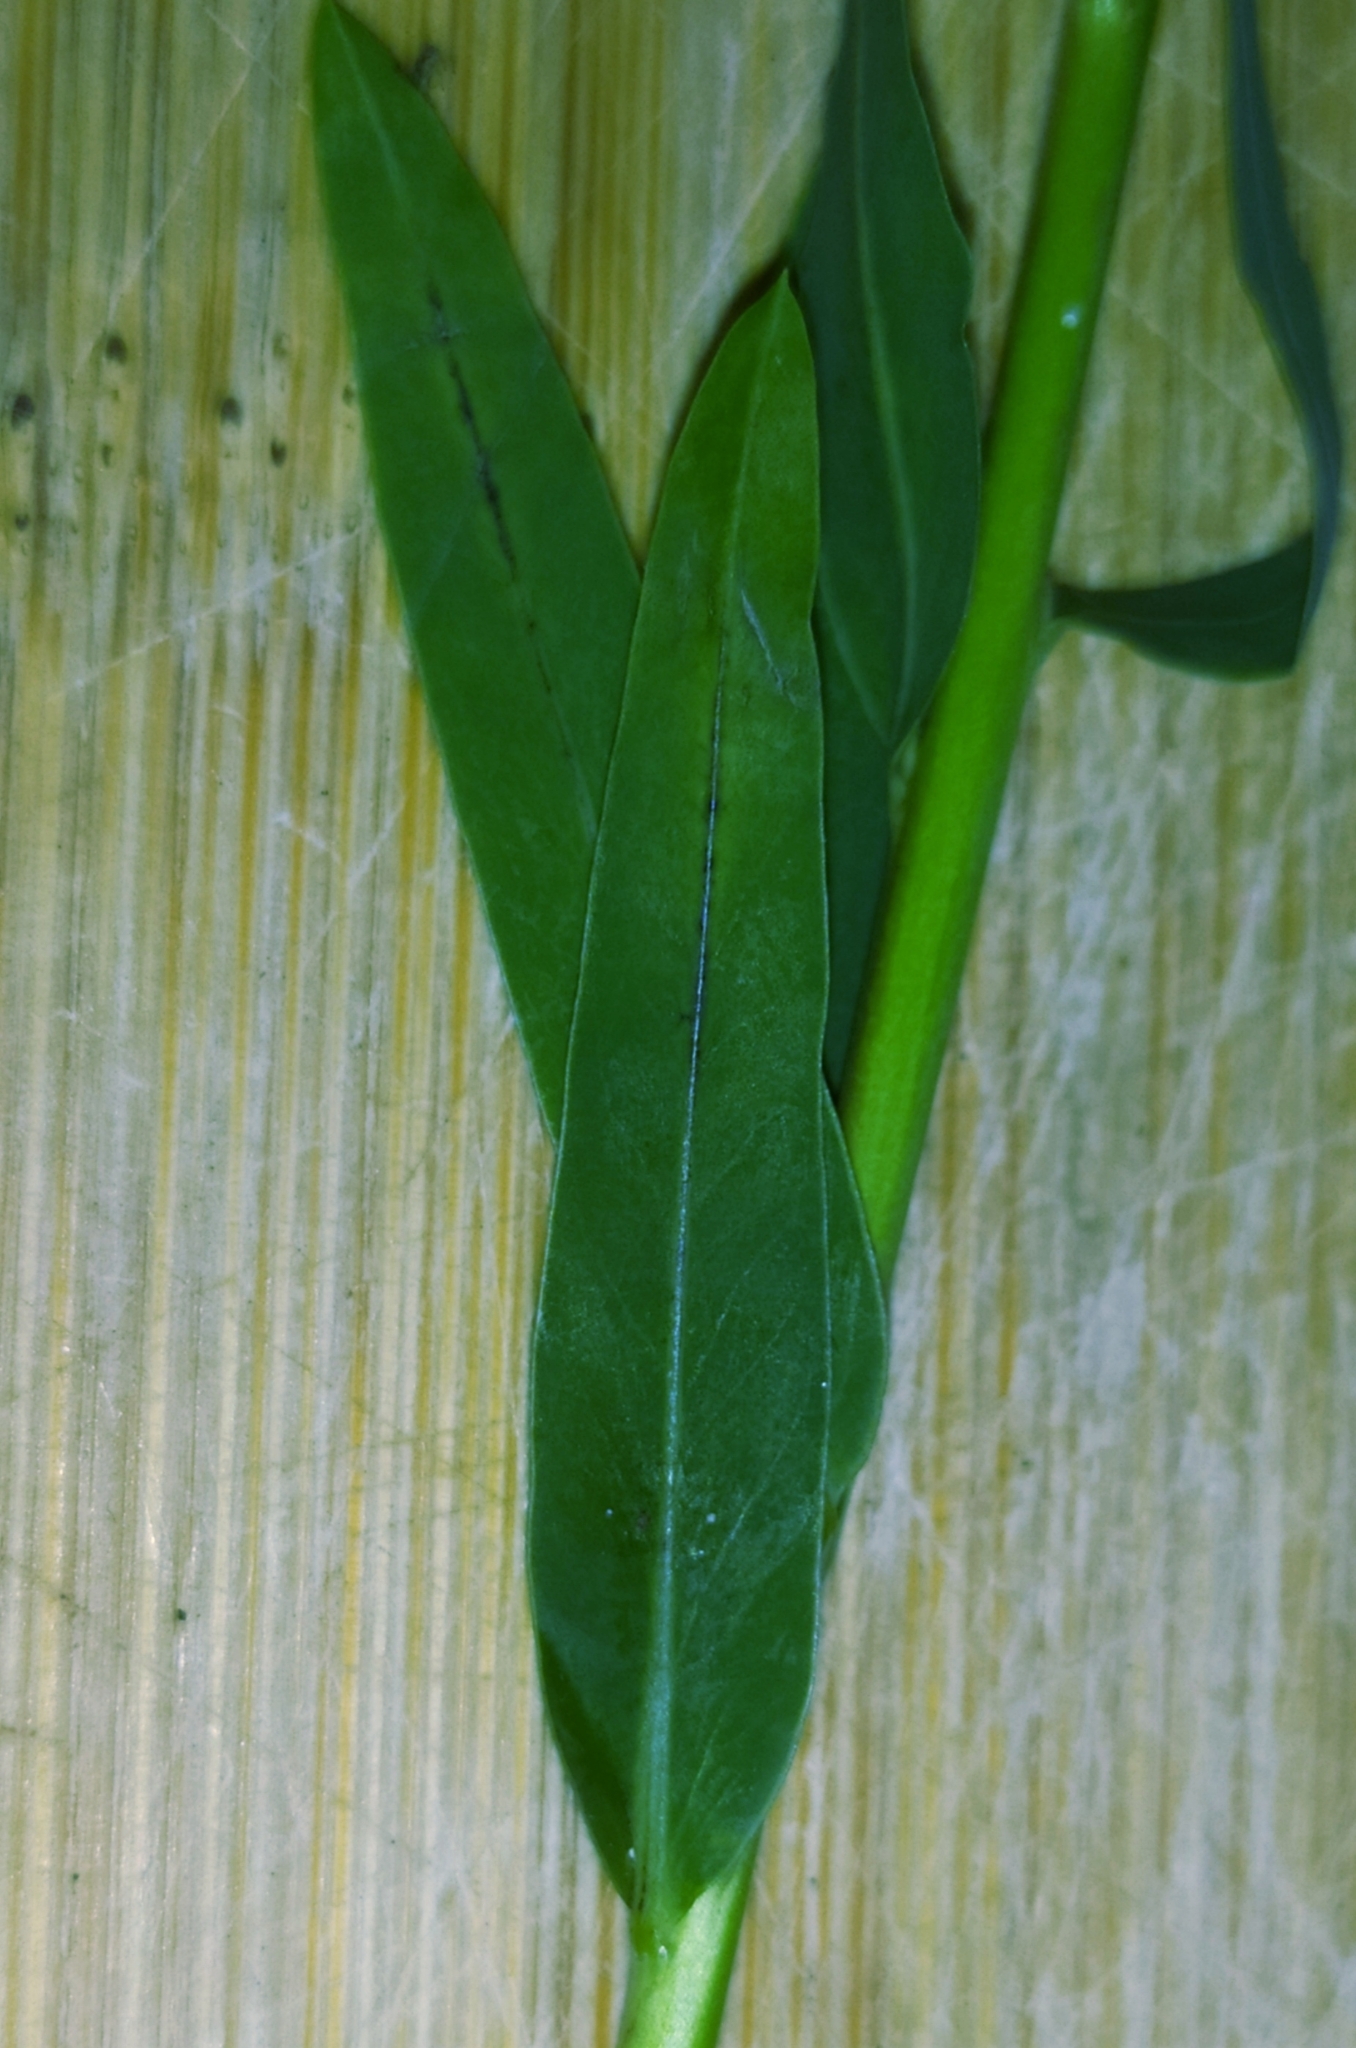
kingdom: Plantae
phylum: Tracheophyta
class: Magnoliopsida
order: Malpighiales
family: Euphorbiaceae
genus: Euphorbia
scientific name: Euphorbia virgata
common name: Leafy spurge
